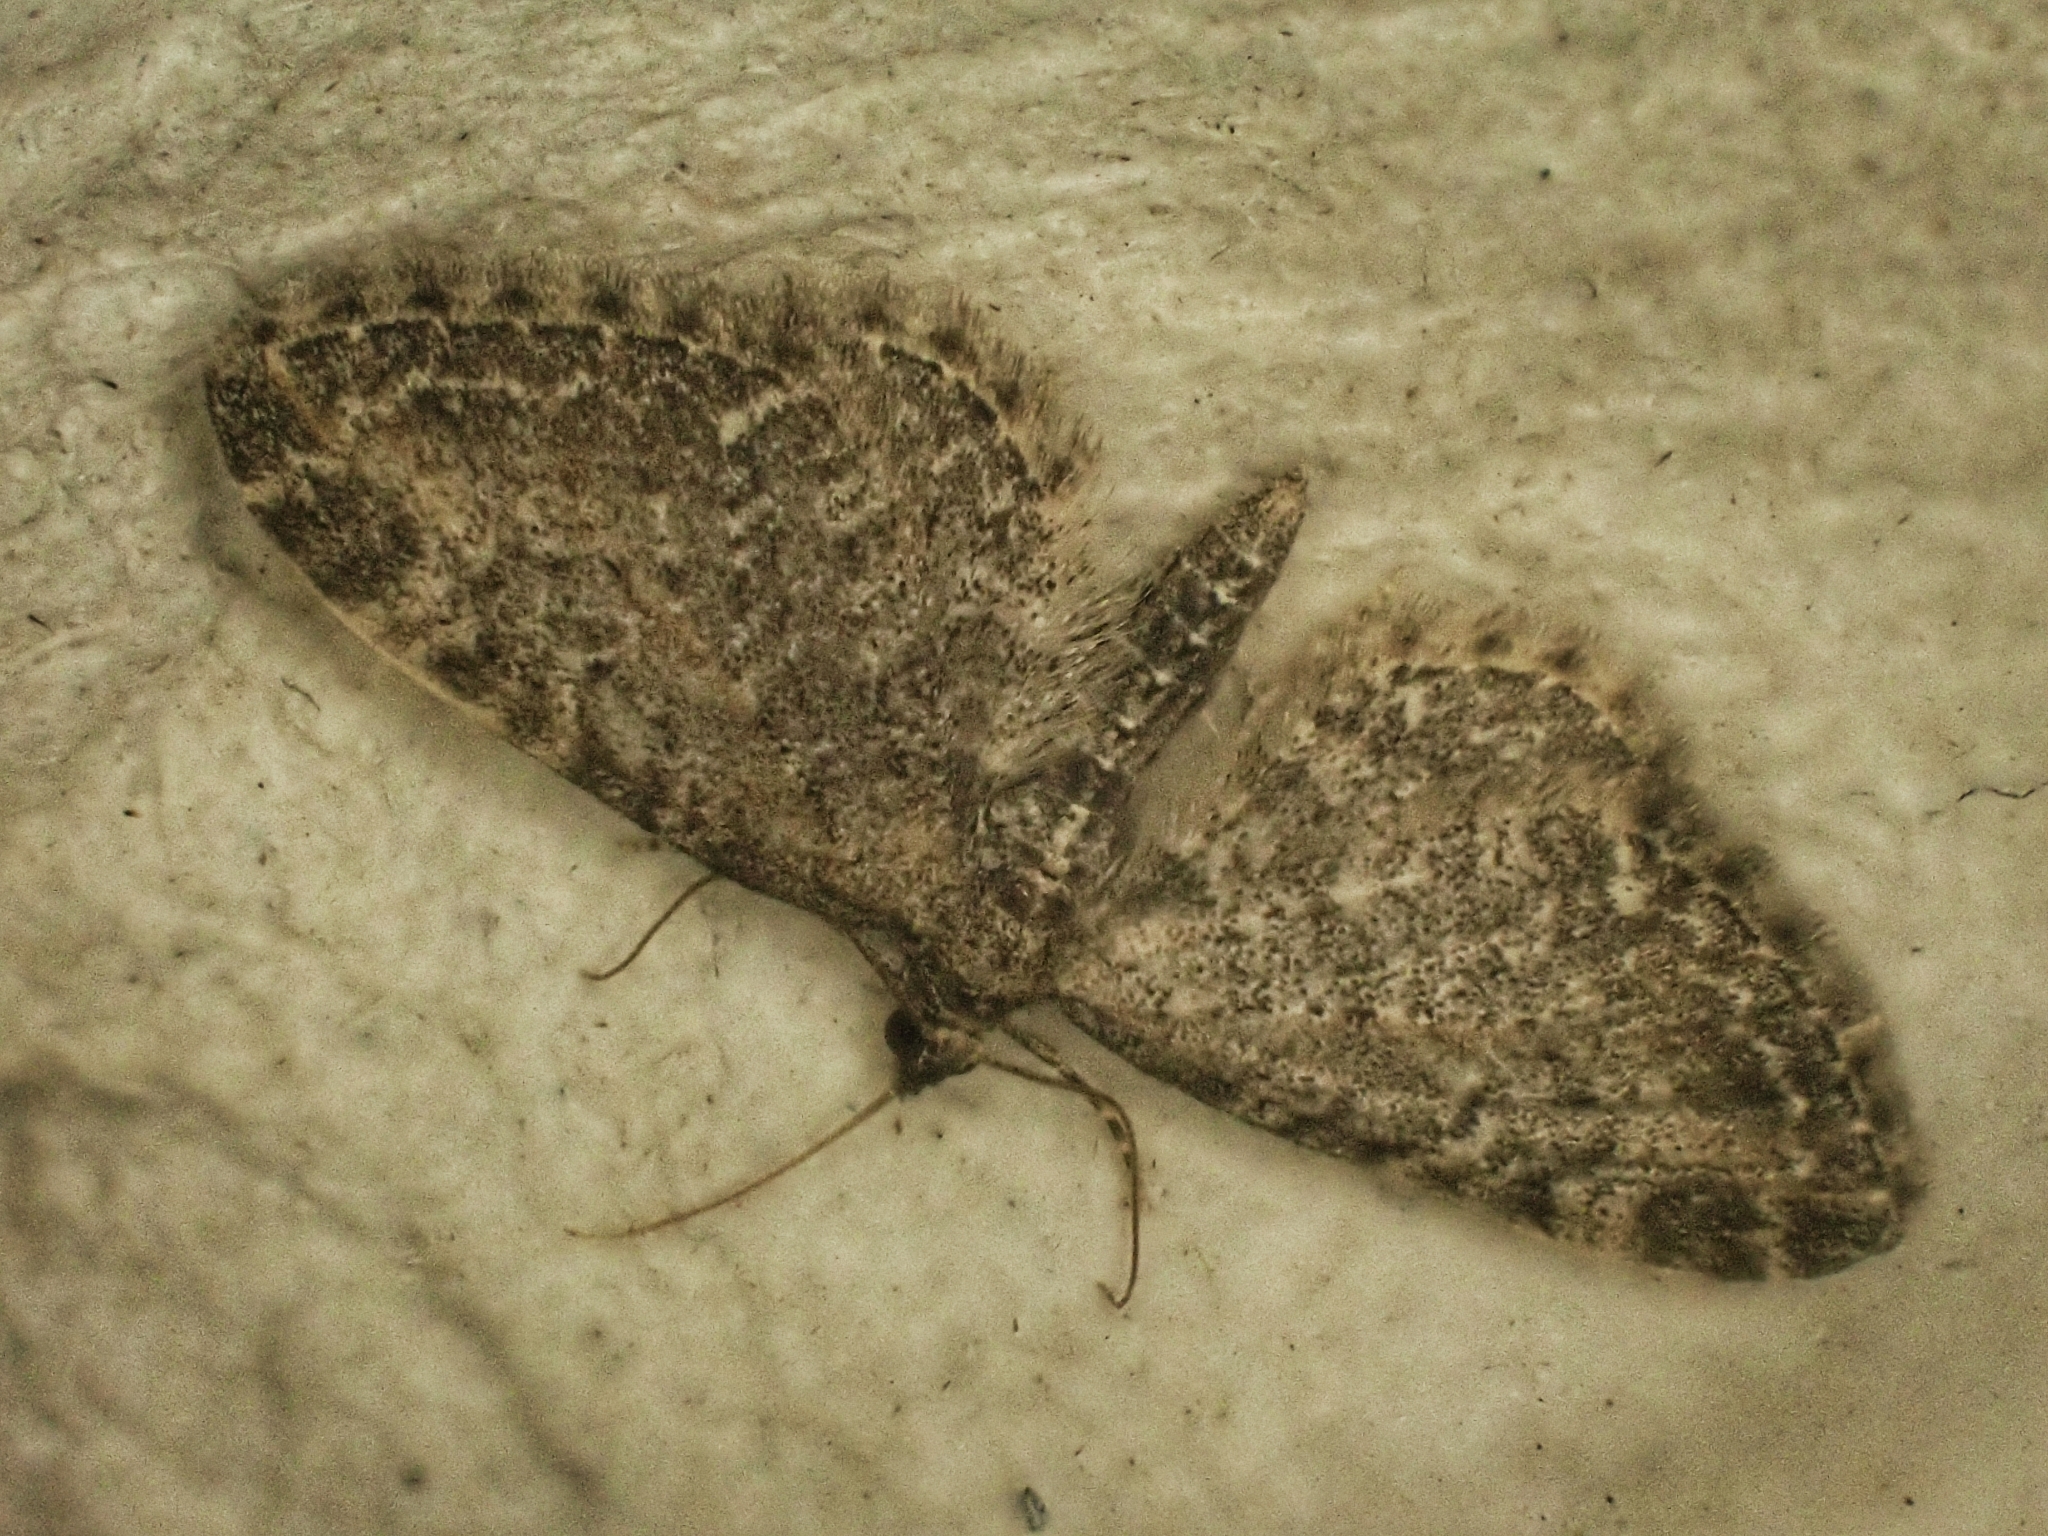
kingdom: Animalia
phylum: Arthropoda
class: Insecta
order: Lepidoptera
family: Geometridae
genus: Eupithecia
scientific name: Eupithecia vulgata
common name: Common pug
